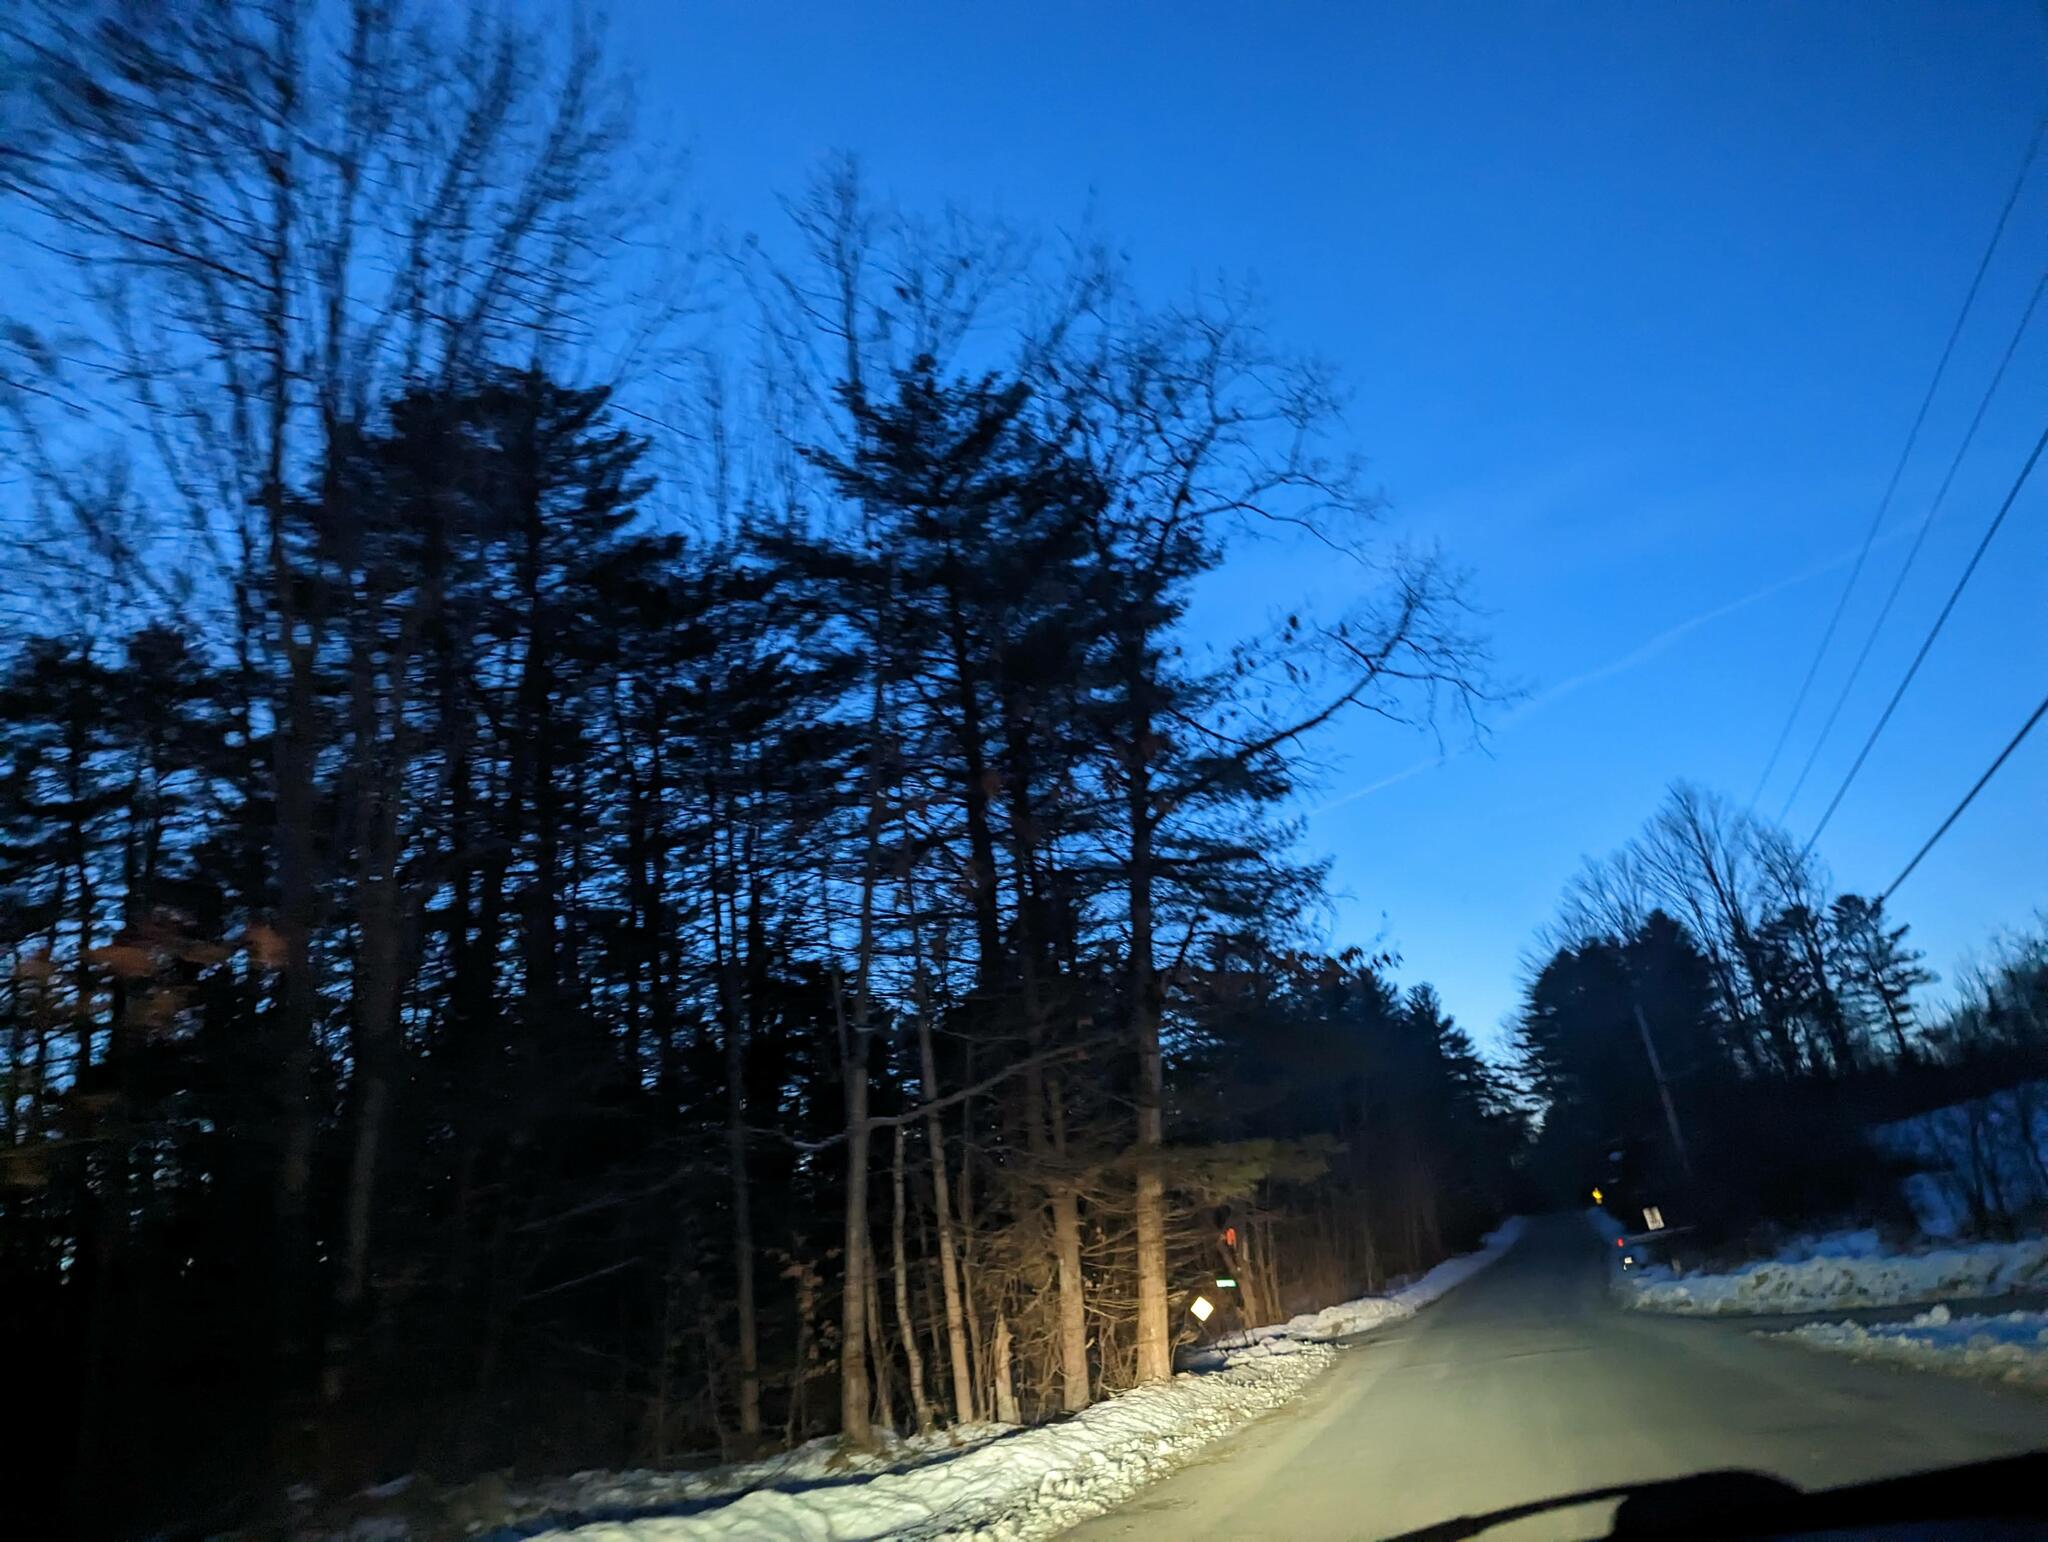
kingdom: Plantae
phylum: Tracheophyta
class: Pinopsida
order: Pinales
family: Pinaceae
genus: Pinus
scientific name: Pinus strobus
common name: Weymouth pine
